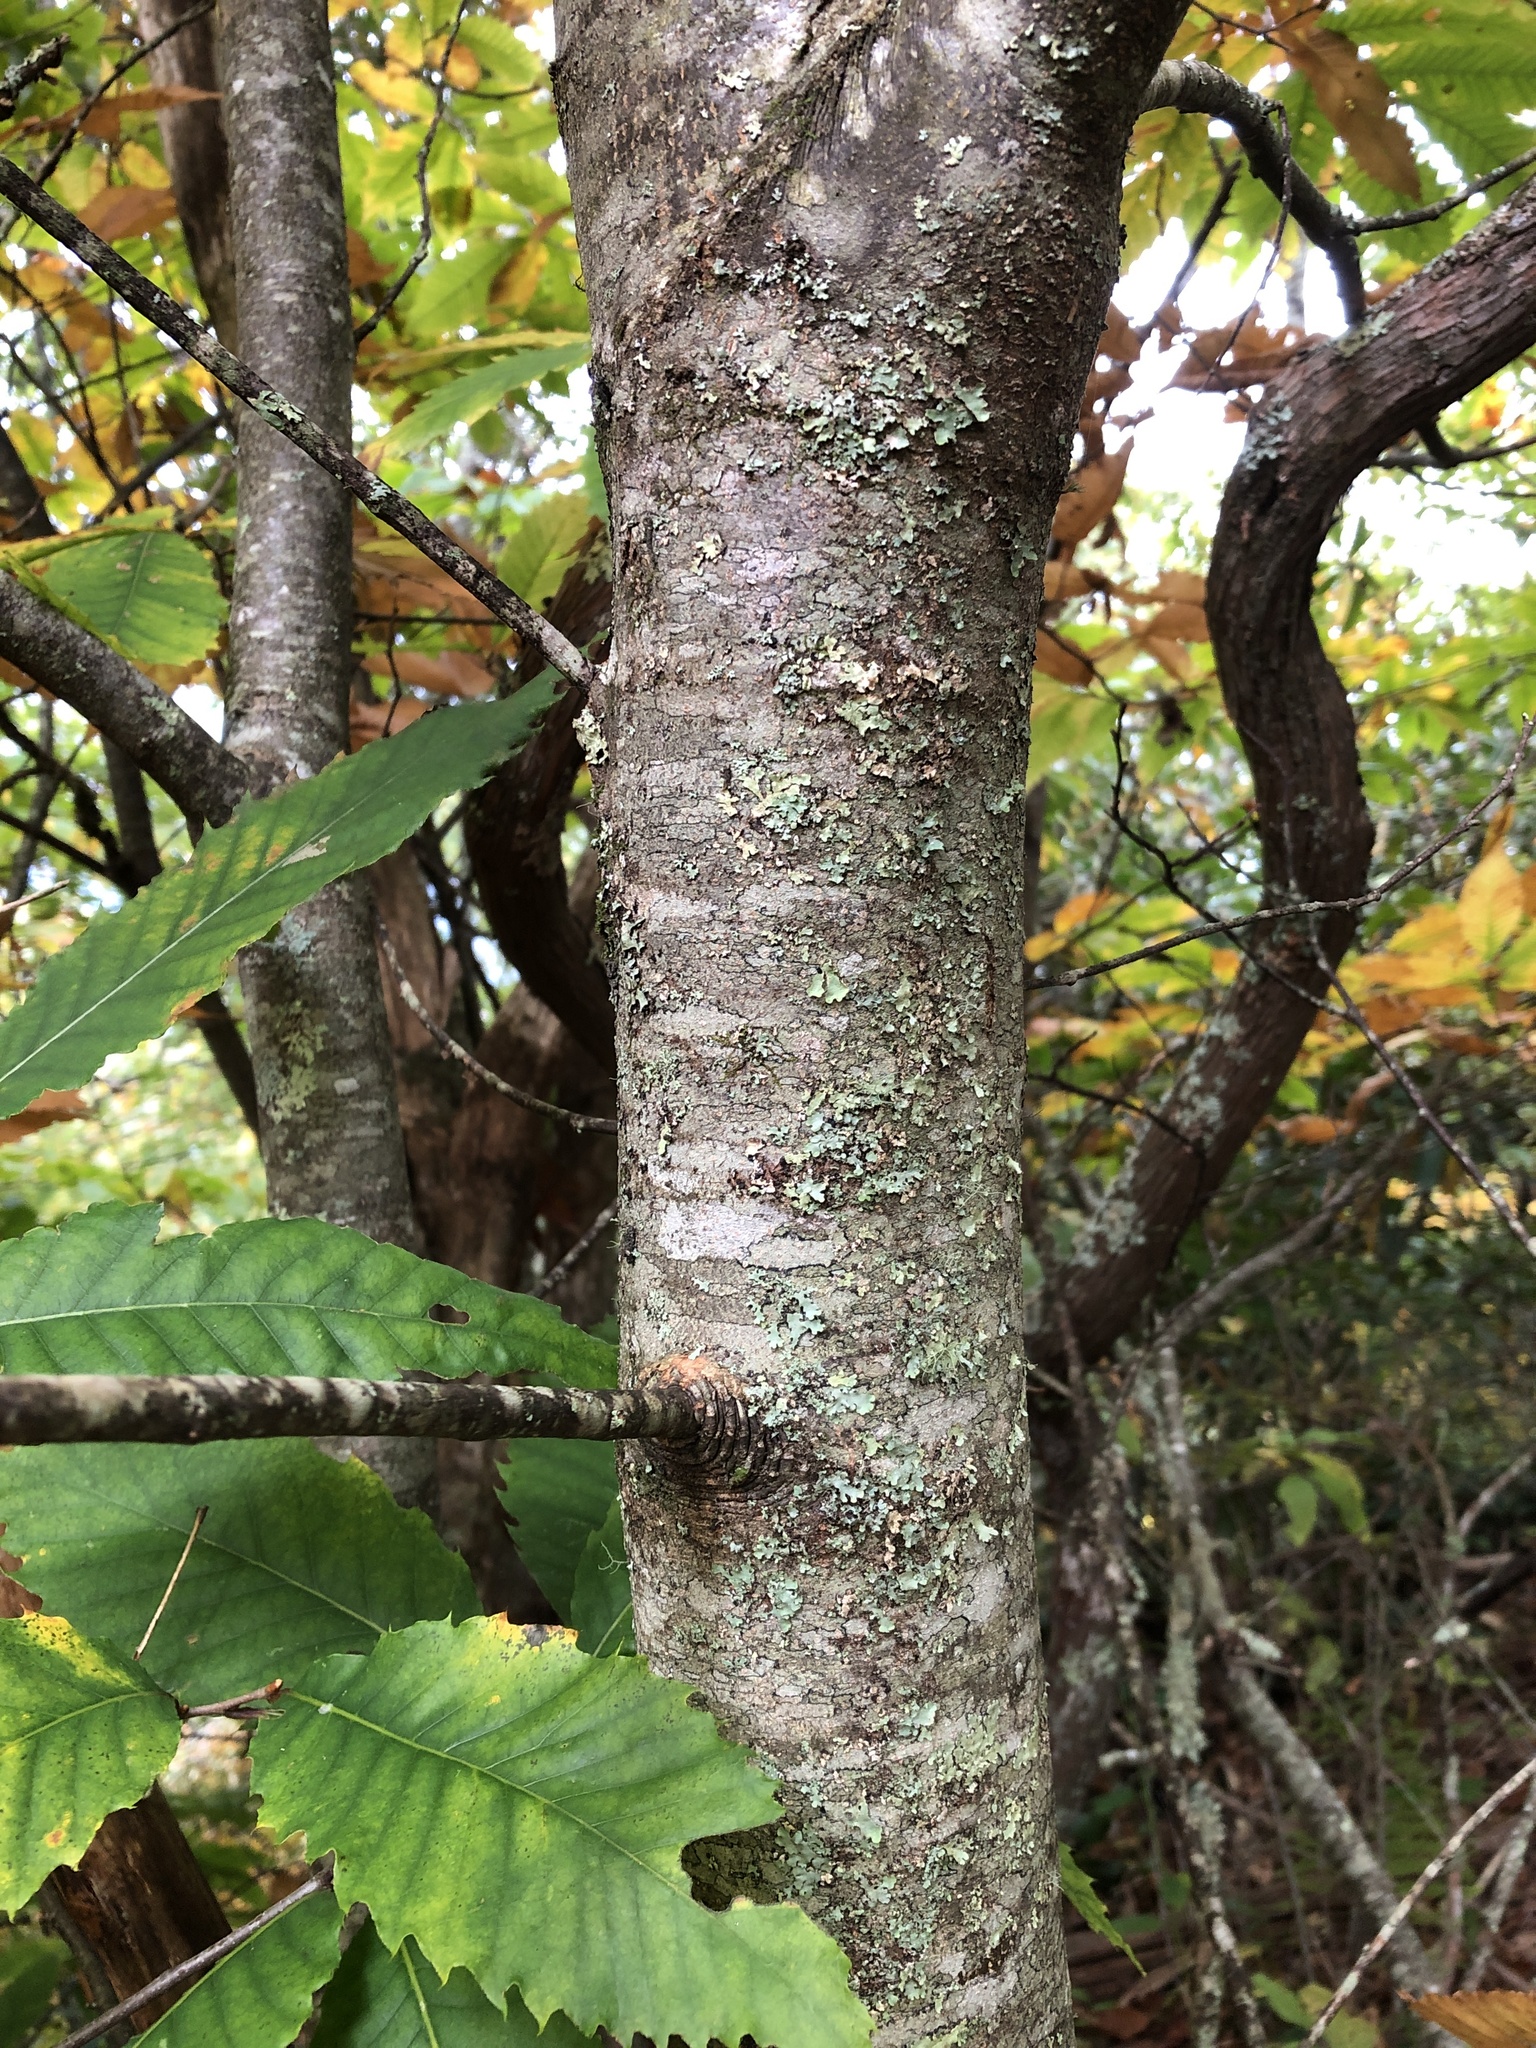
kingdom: Plantae
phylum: Tracheophyta
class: Magnoliopsida
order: Fagales
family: Fagaceae
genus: Castanea
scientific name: Castanea dentata
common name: American chestnut
